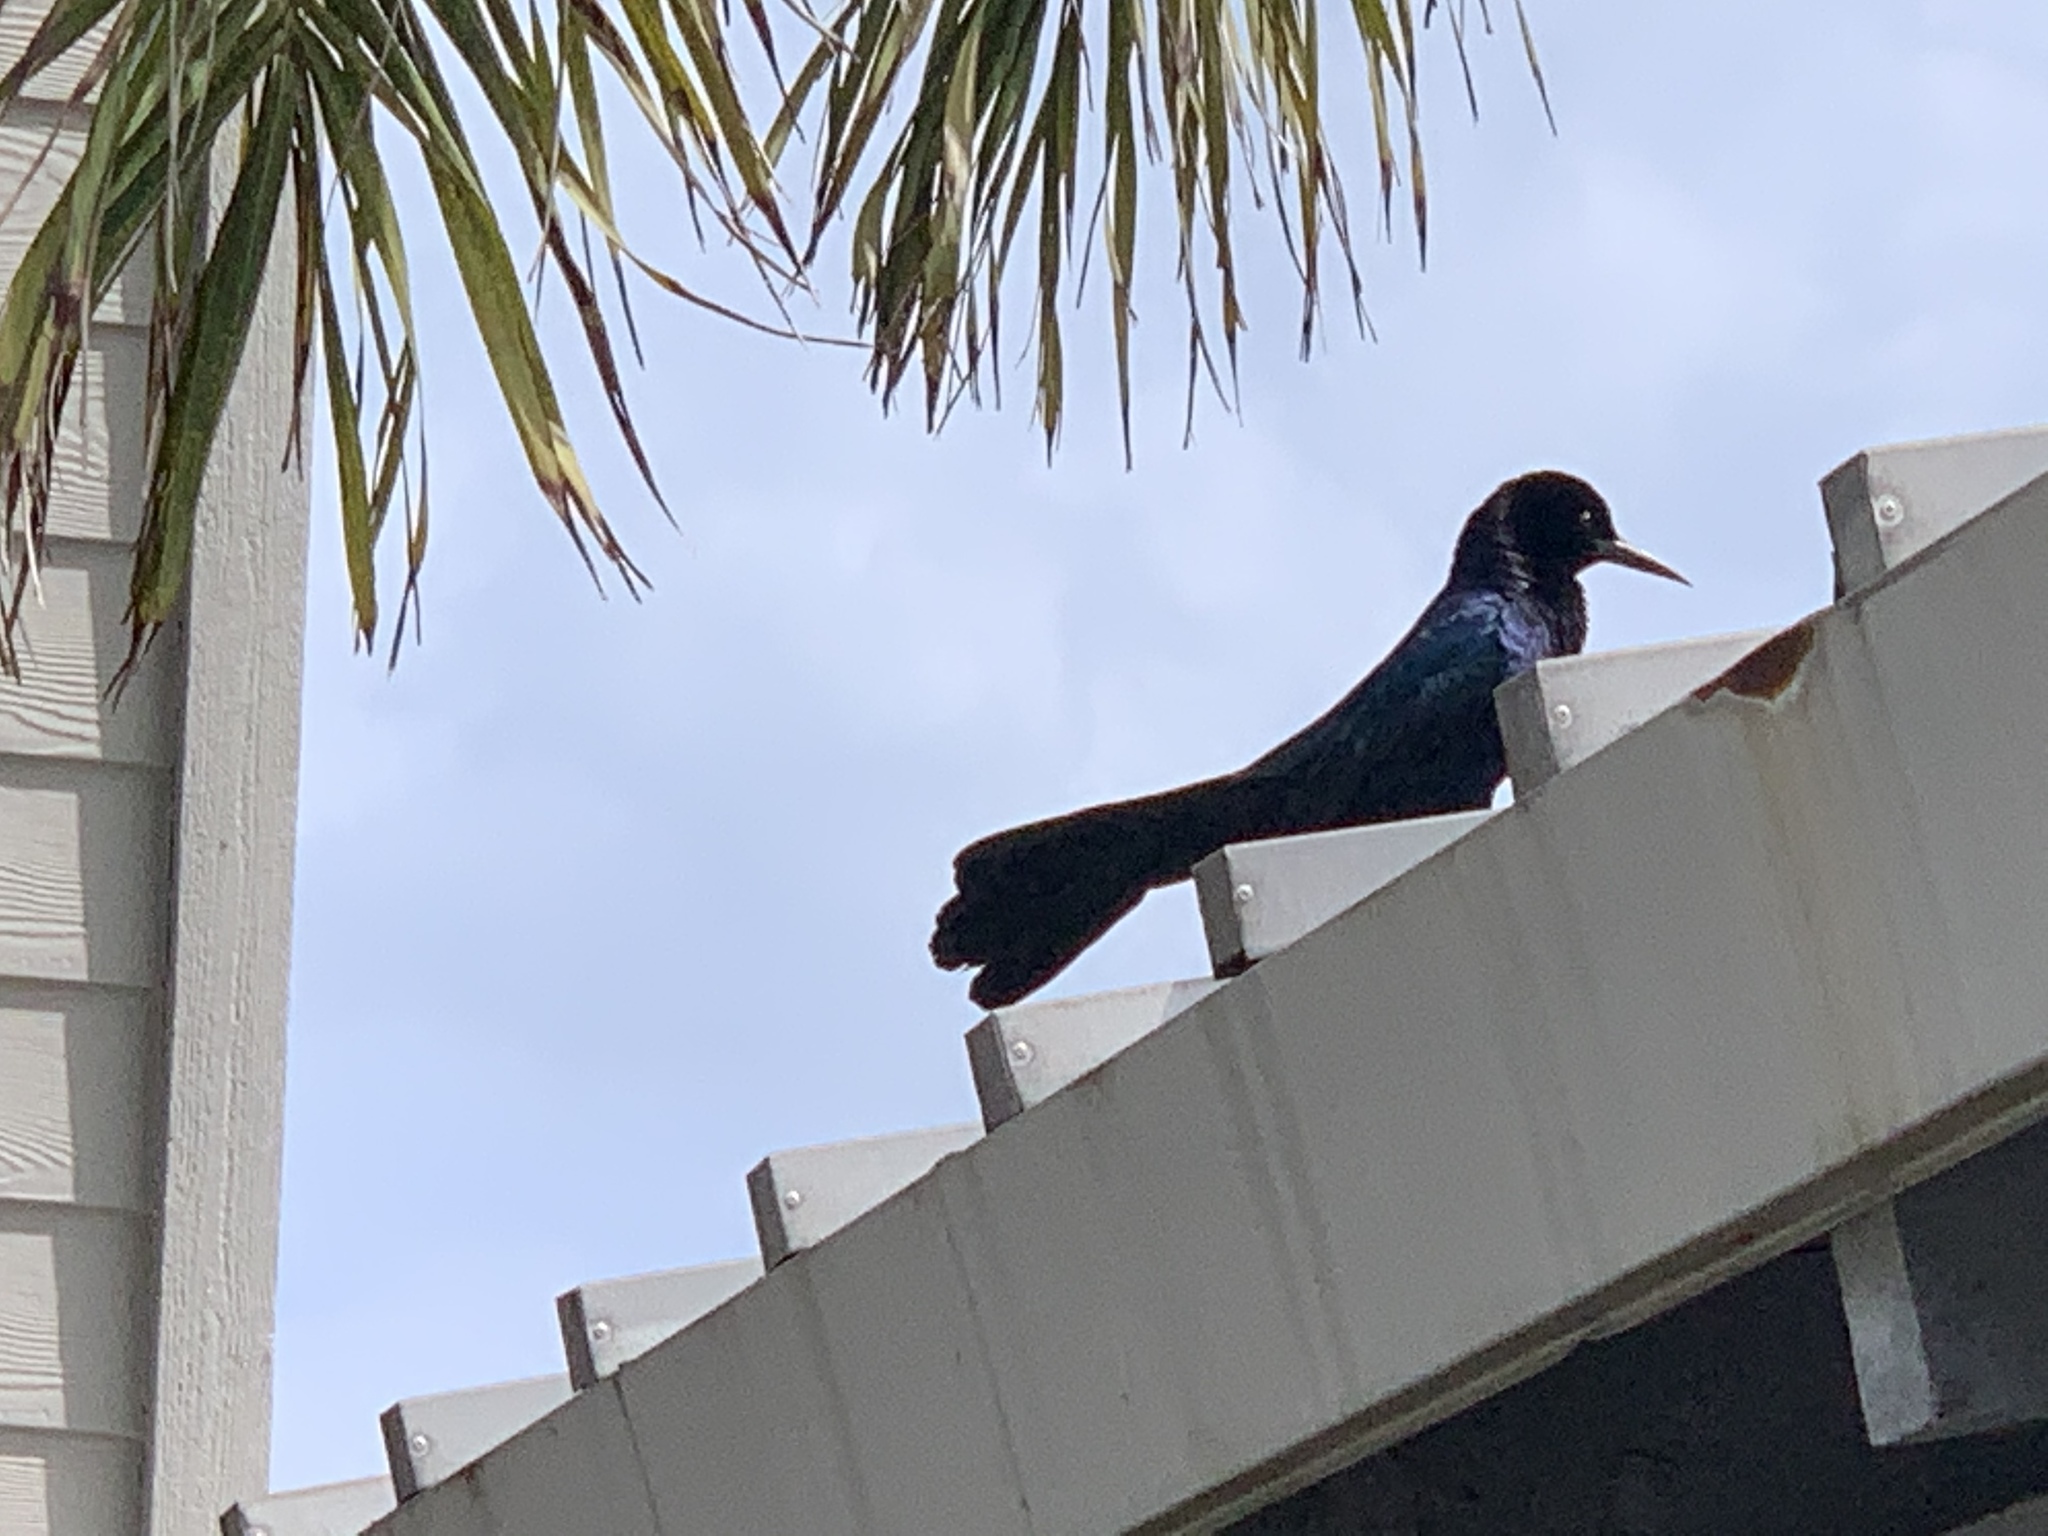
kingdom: Animalia
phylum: Chordata
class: Aves
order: Passeriformes
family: Icteridae
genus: Quiscalus
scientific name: Quiscalus major
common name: Boat-tailed grackle
